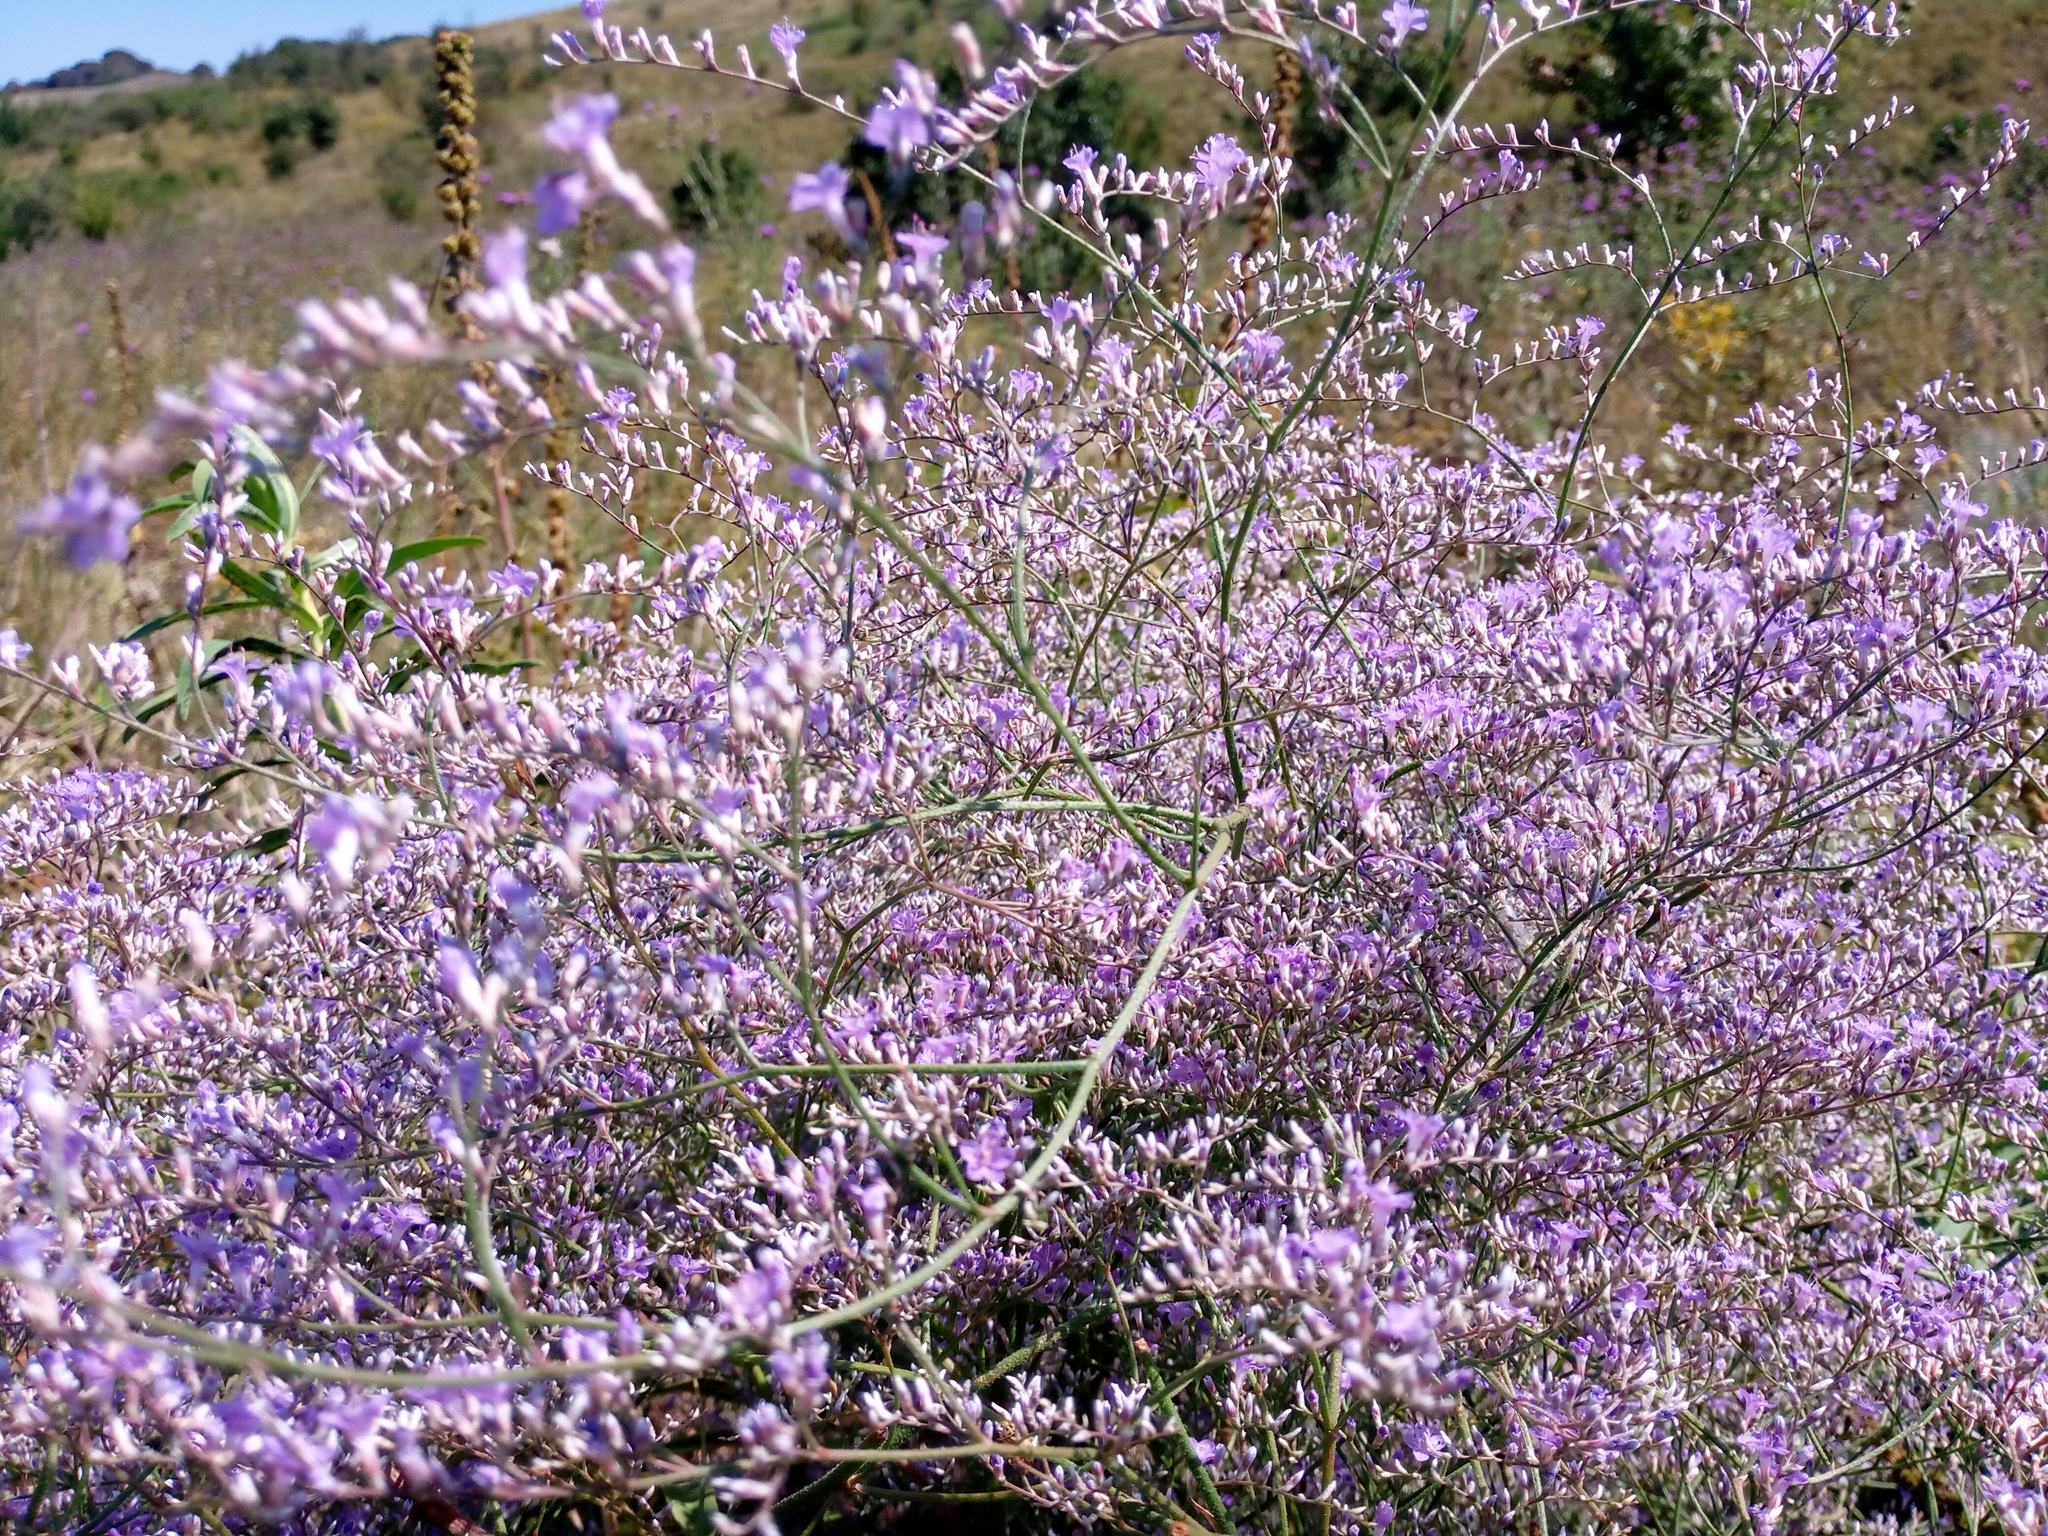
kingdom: Plantae
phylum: Tracheophyta
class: Magnoliopsida
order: Caryophyllales
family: Plumbaginaceae
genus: Limonium
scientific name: Limonium platyphyllum
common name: Florist's sea lavender
